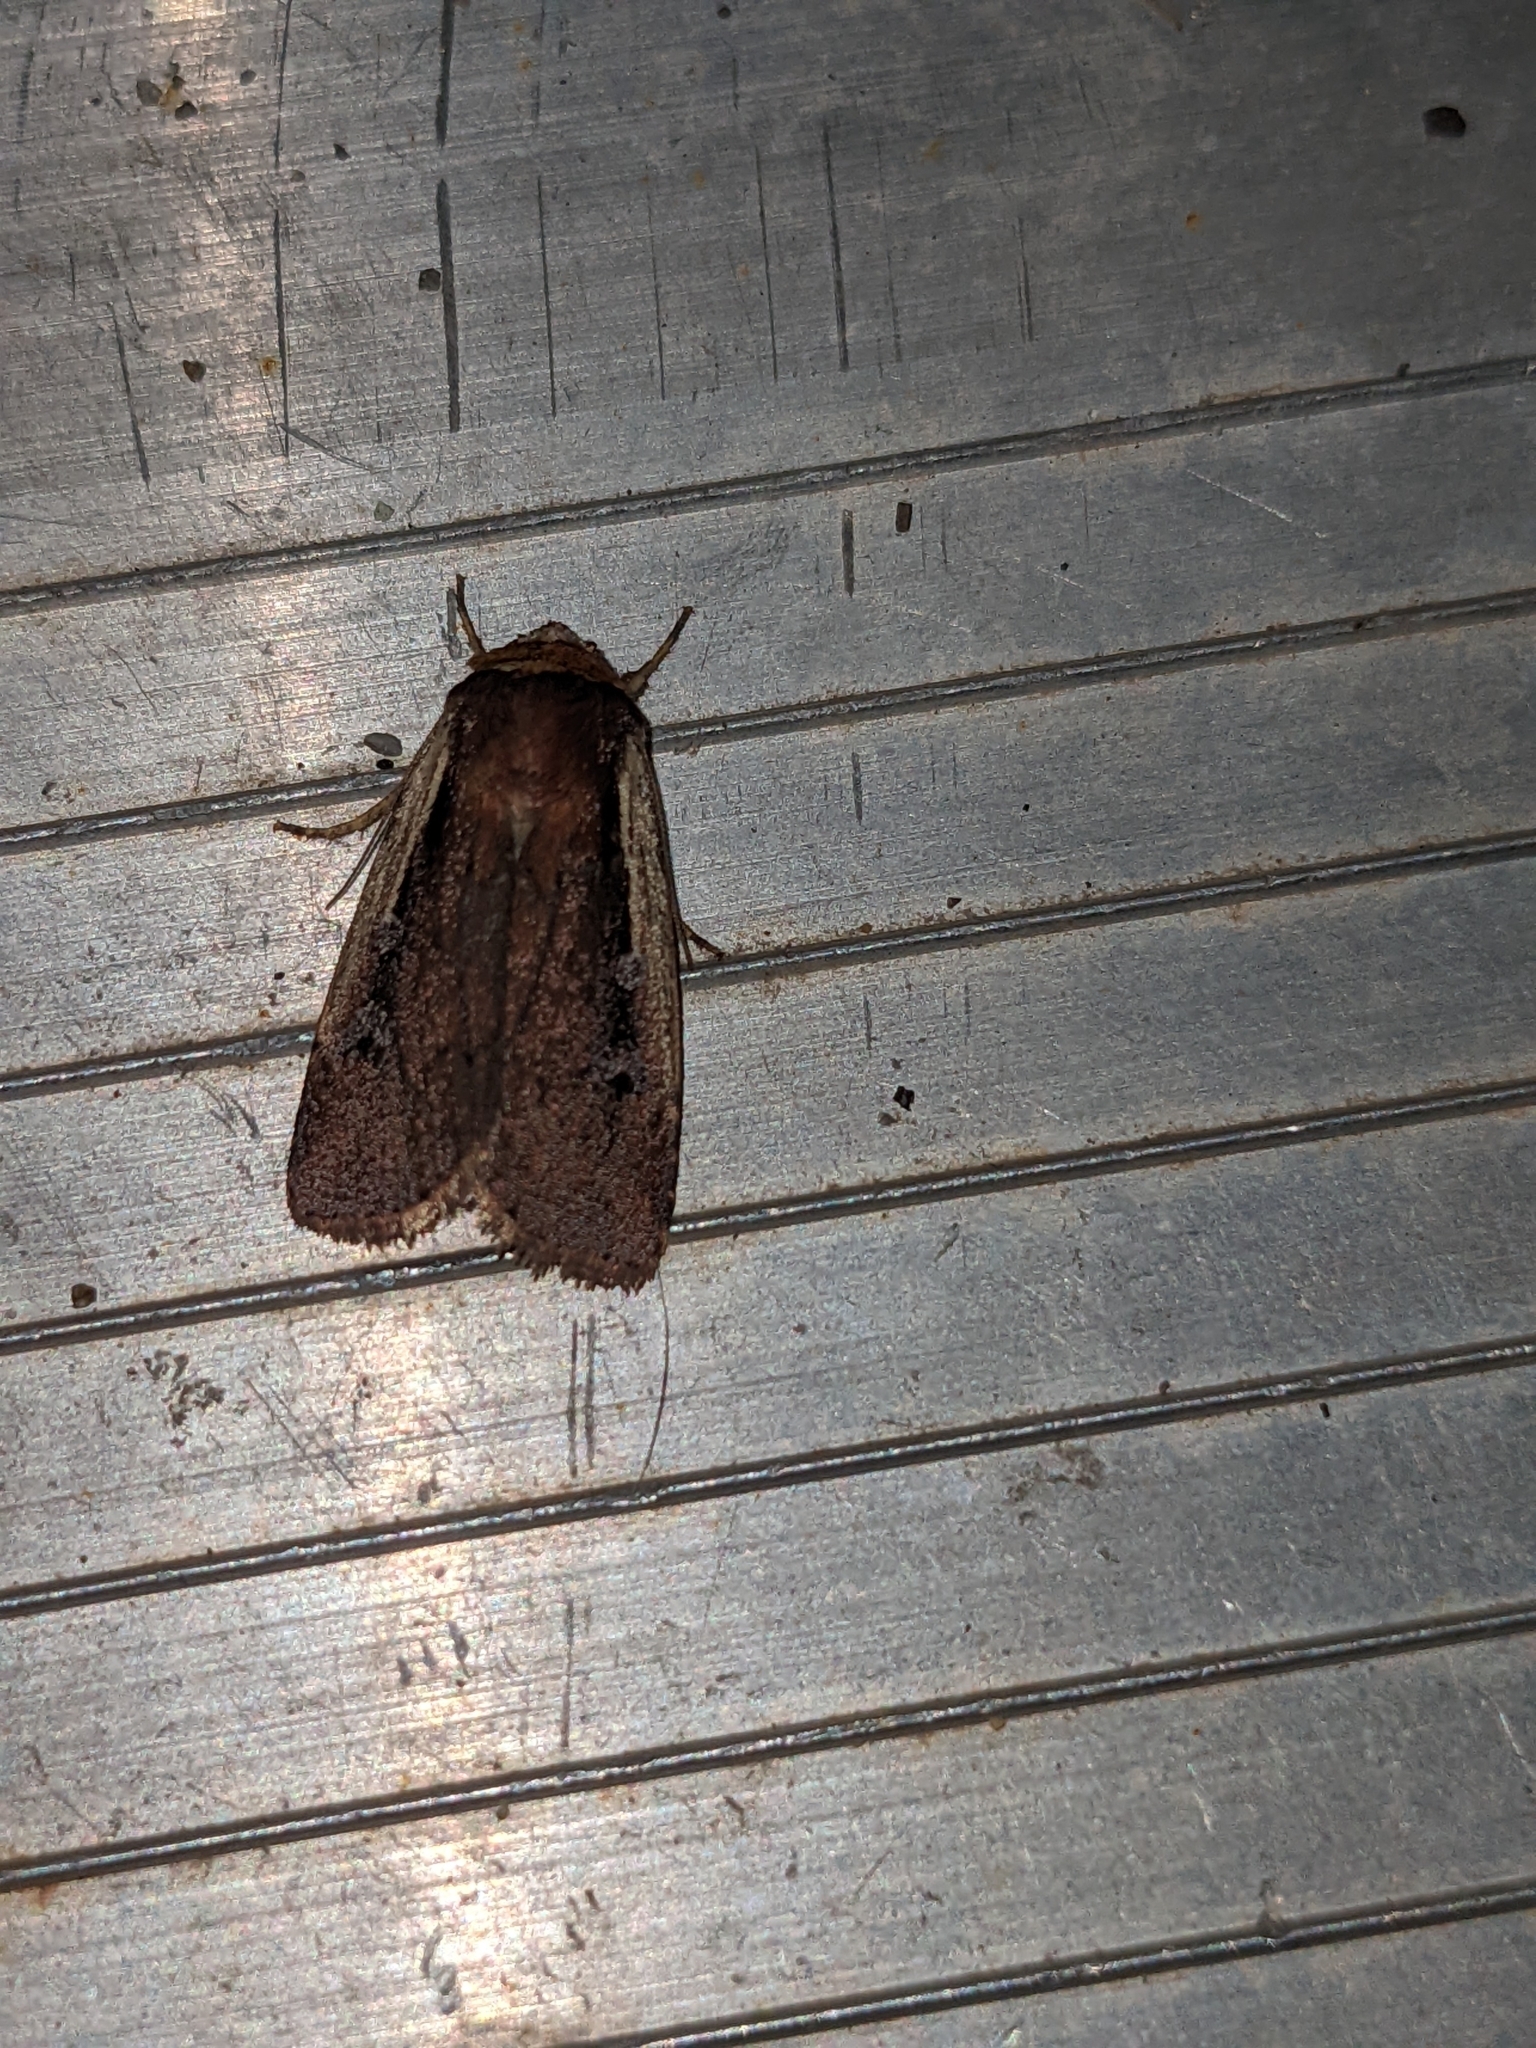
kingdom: Animalia
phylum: Arthropoda
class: Insecta
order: Lepidoptera
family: Noctuidae
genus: Ochropleura
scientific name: Ochropleura implecta
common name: Flame-shouldered dart
